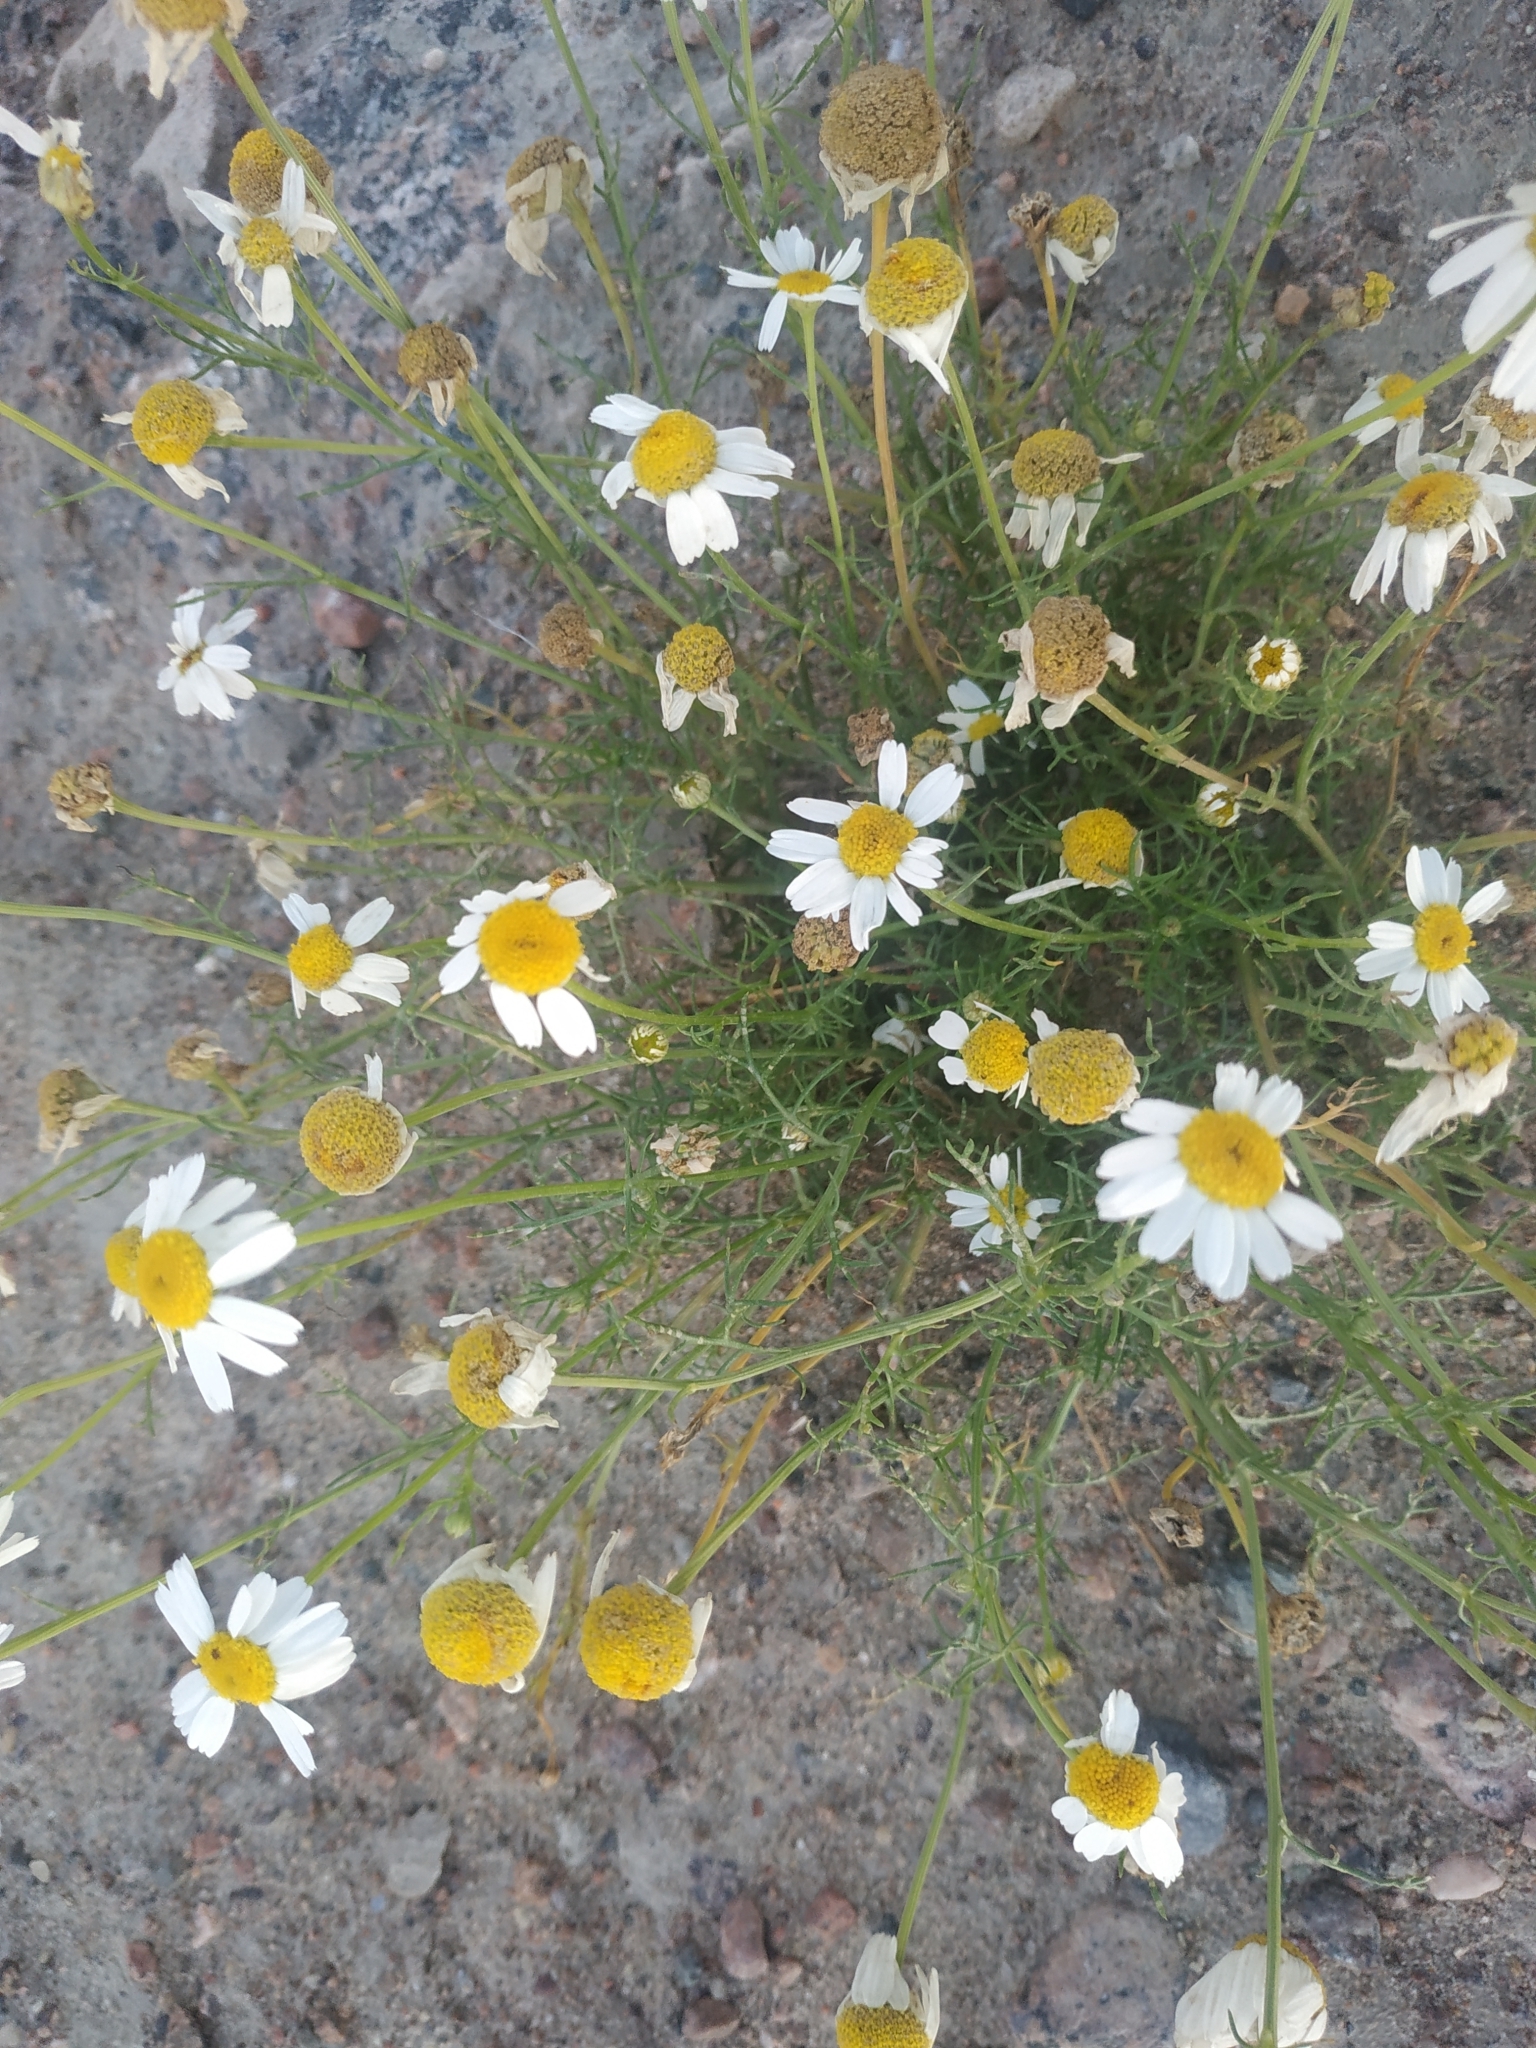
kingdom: Plantae
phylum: Tracheophyta
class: Magnoliopsida
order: Asterales
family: Asteraceae
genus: Tripleurospermum
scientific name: Tripleurospermum inodorum
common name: Scentless mayweed
